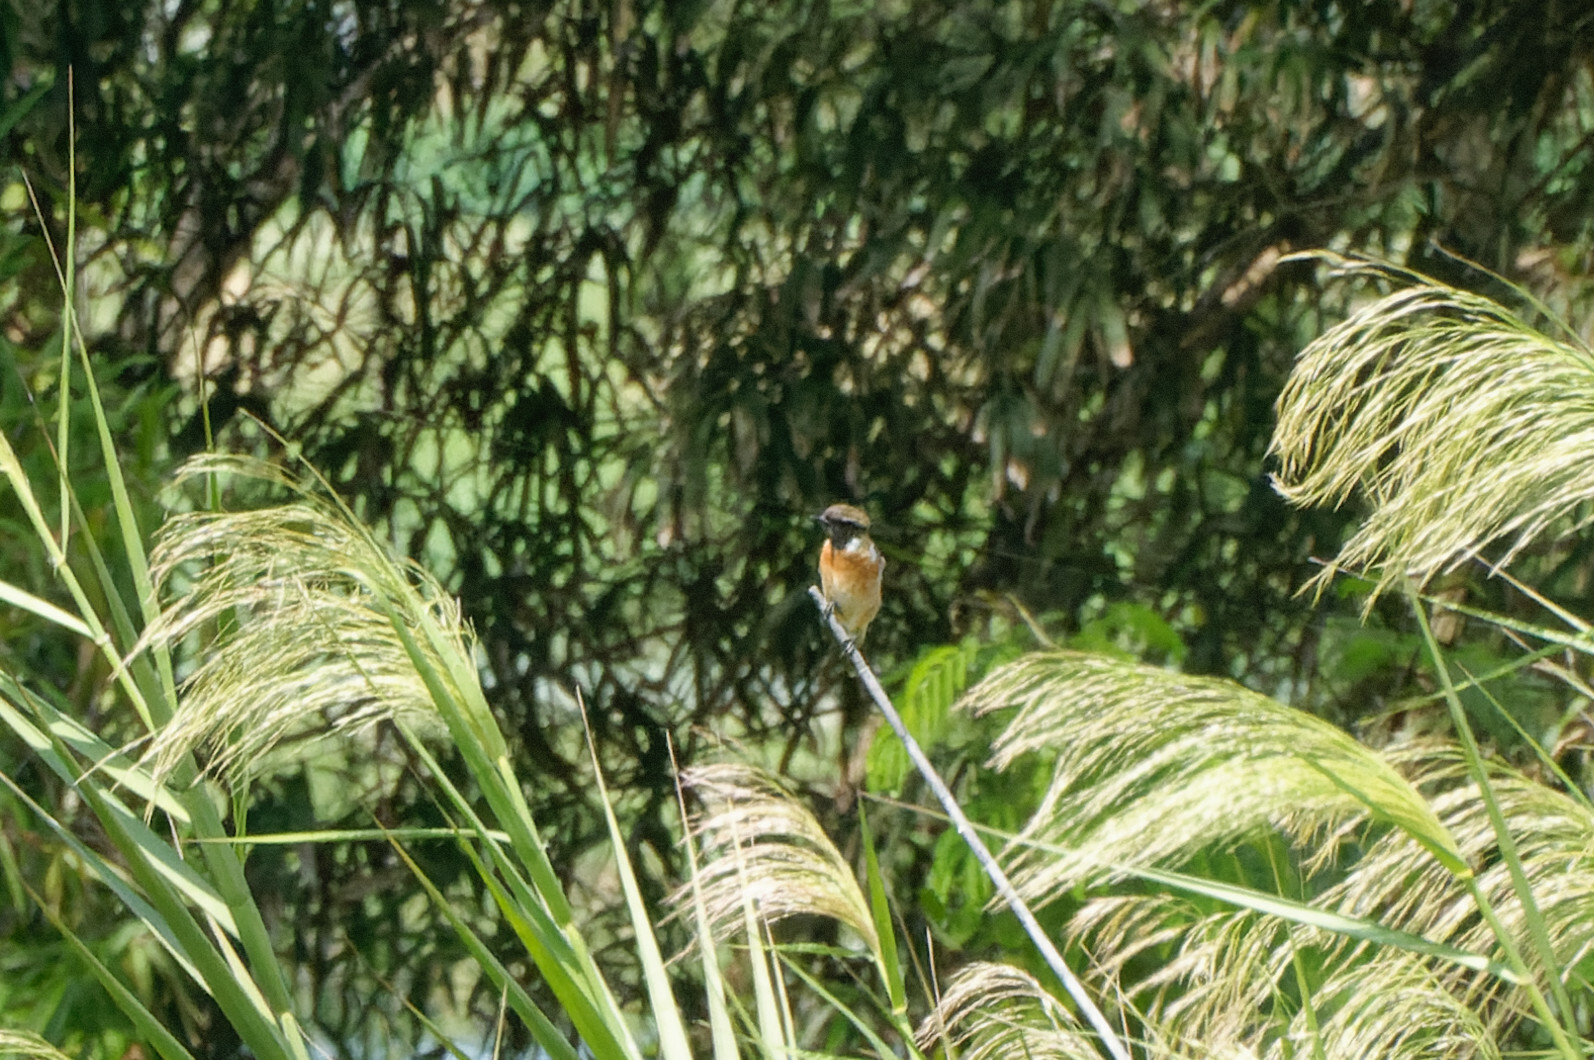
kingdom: Animalia
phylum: Chordata
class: Aves
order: Passeriformes
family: Muscicapidae
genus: Saxicola
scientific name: Saxicola stejnegeri
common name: Stejneger's stonechat
